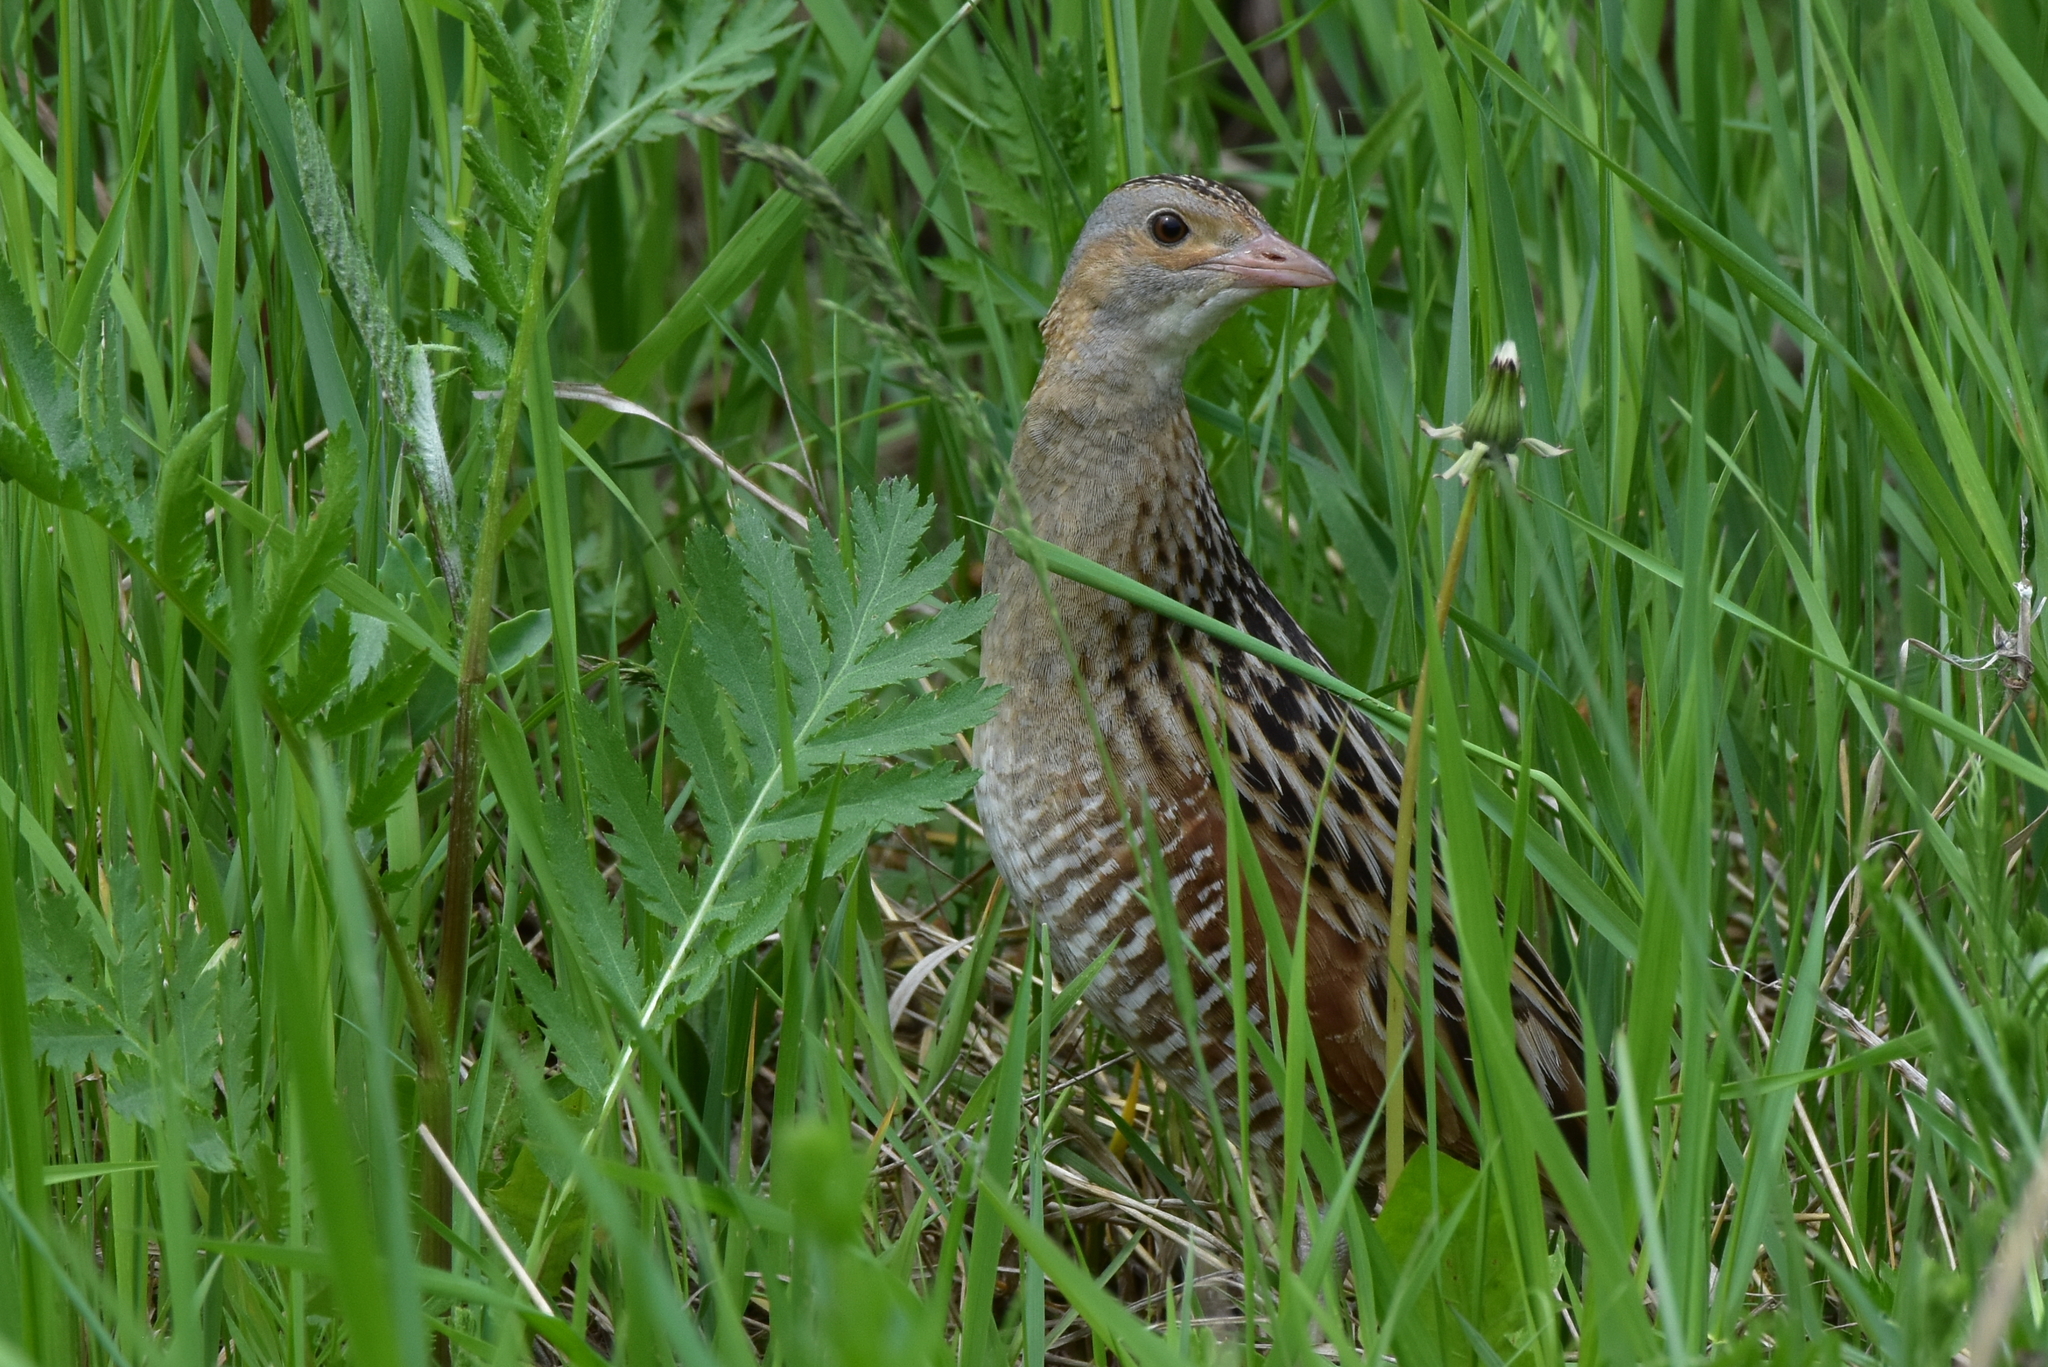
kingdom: Animalia
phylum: Chordata
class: Aves
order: Gruiformes
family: Rallidae
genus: Crex
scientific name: Crex crex
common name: Corn crake
